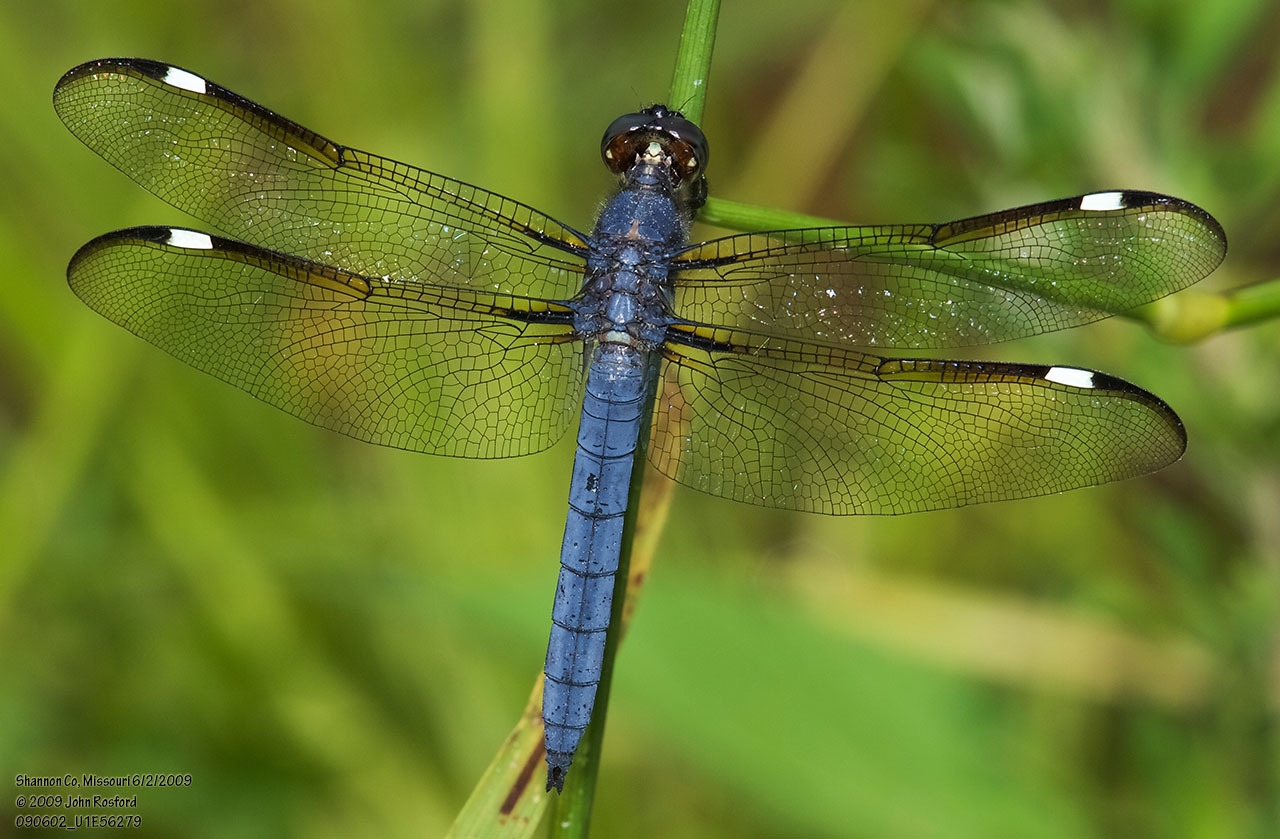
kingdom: Animalia
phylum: Arthropoda
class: Insecta
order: Odonata
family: Libellulidae
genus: Libellula
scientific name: Libellula cyanea
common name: Spangled skimmer
